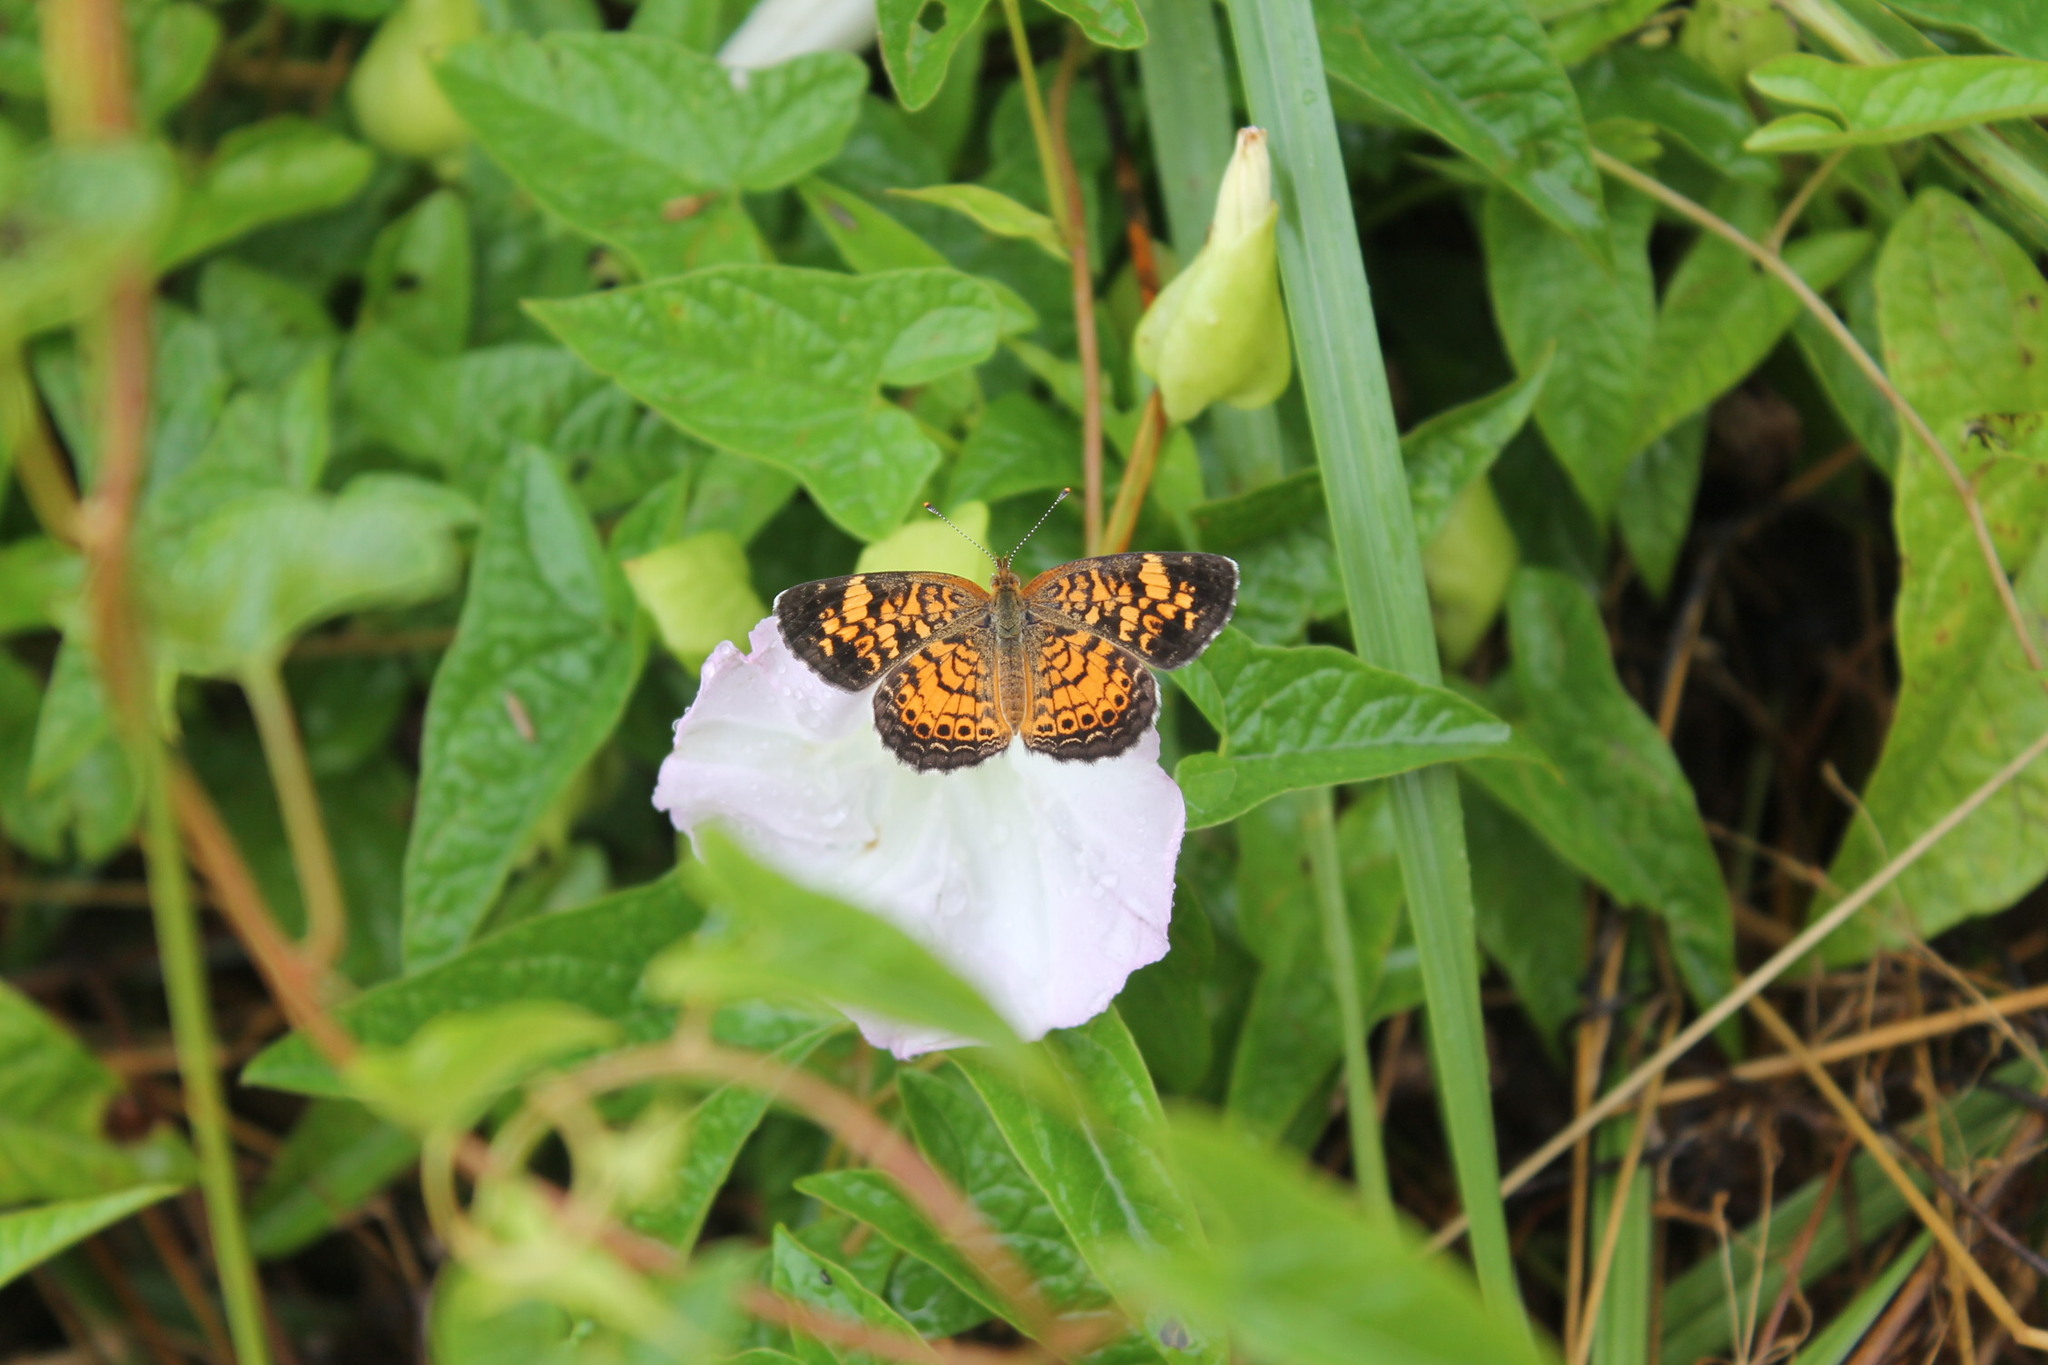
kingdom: Animalia
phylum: Arthropoda
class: Insecta
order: Lepidoptera
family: Nymphalidae
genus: Phyciodes
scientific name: Phyciodes tharos
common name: Pearl crescent
